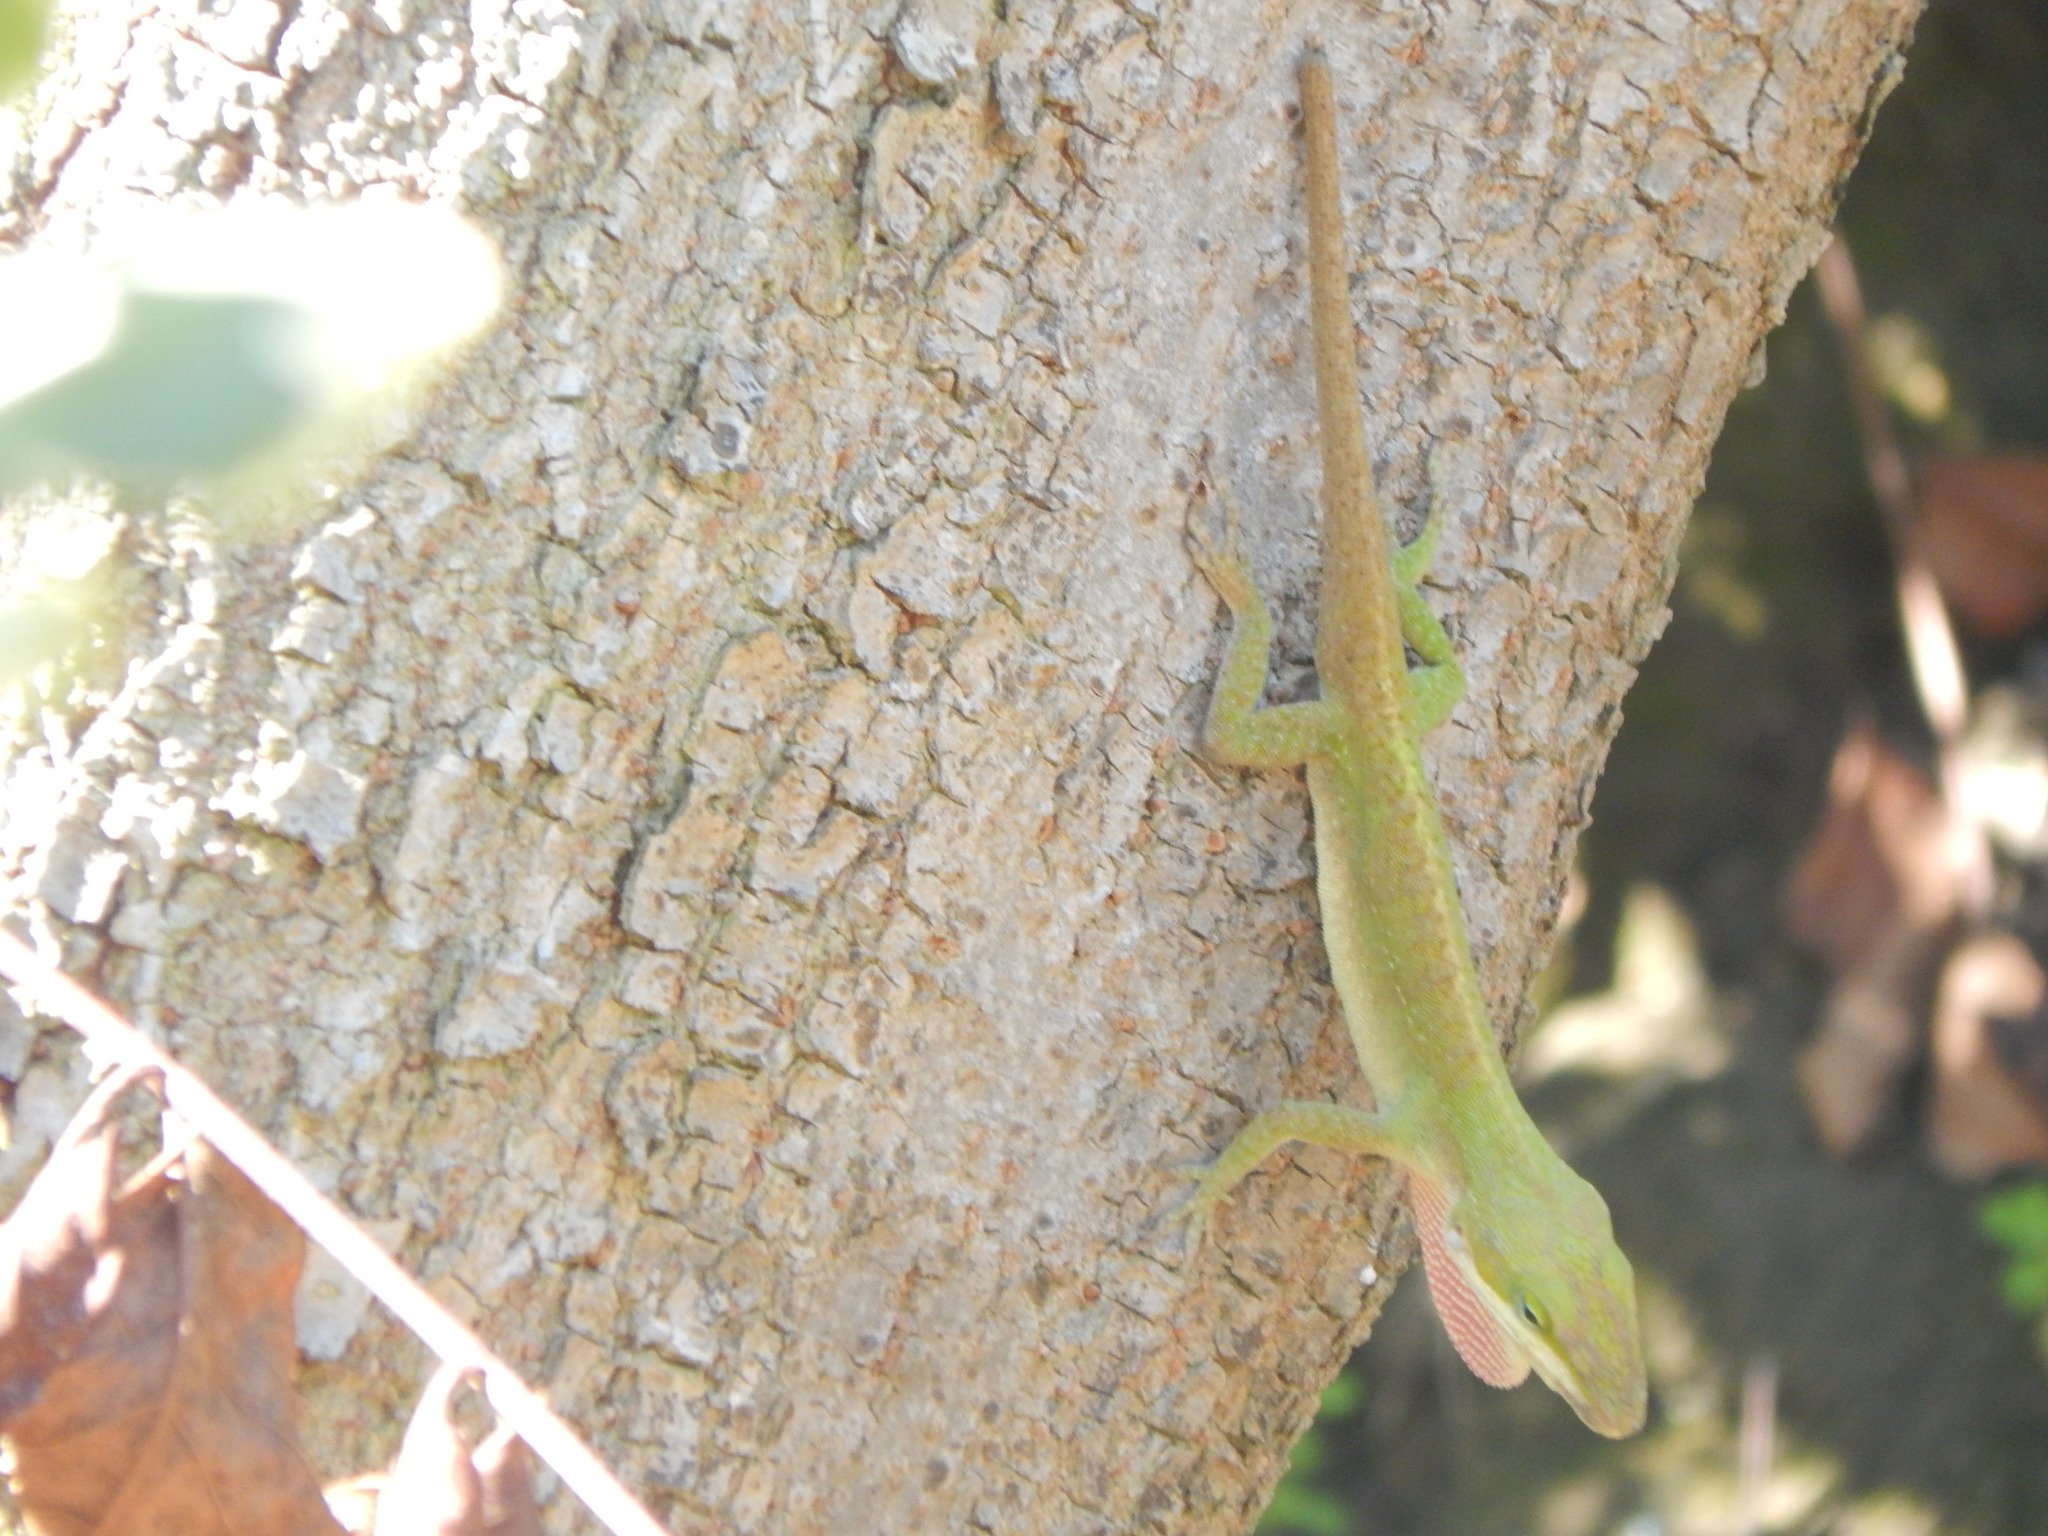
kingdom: Animalia
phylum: Chordata
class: Squamata
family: Dactyloidae
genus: Anolis
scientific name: Anolis carolinensis
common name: Green anole
